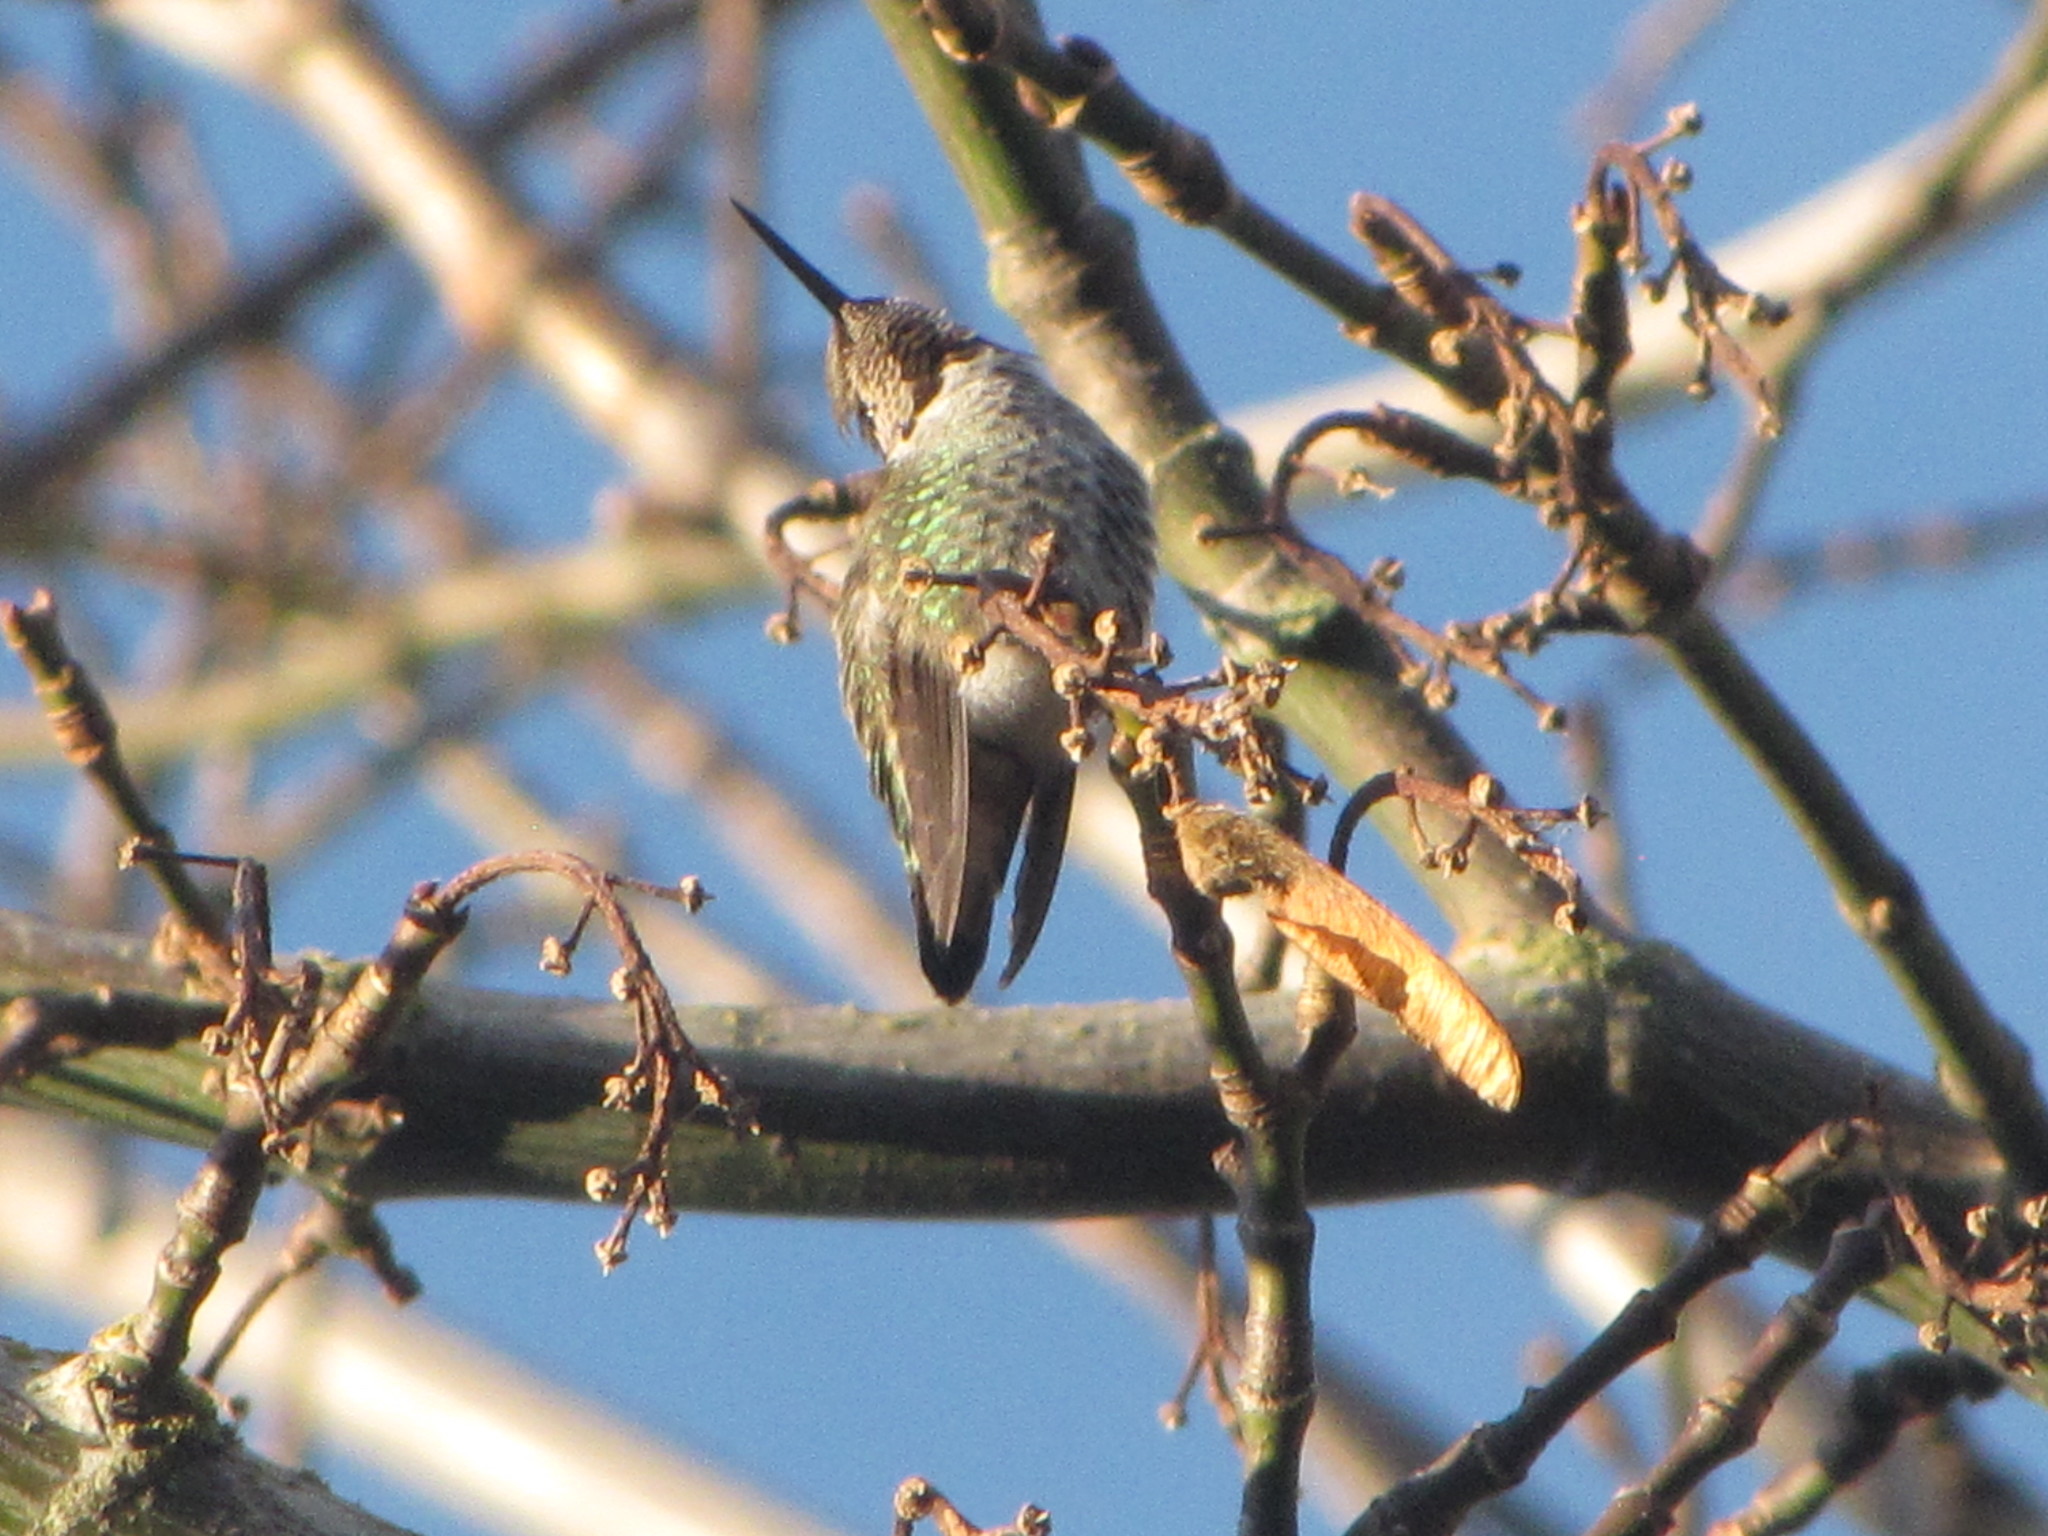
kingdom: Animalia
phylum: Chordata
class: Aves
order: Apodiformes
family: Trochilidae
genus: Calypte
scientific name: Calypte anna
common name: Anna's hummingbird
